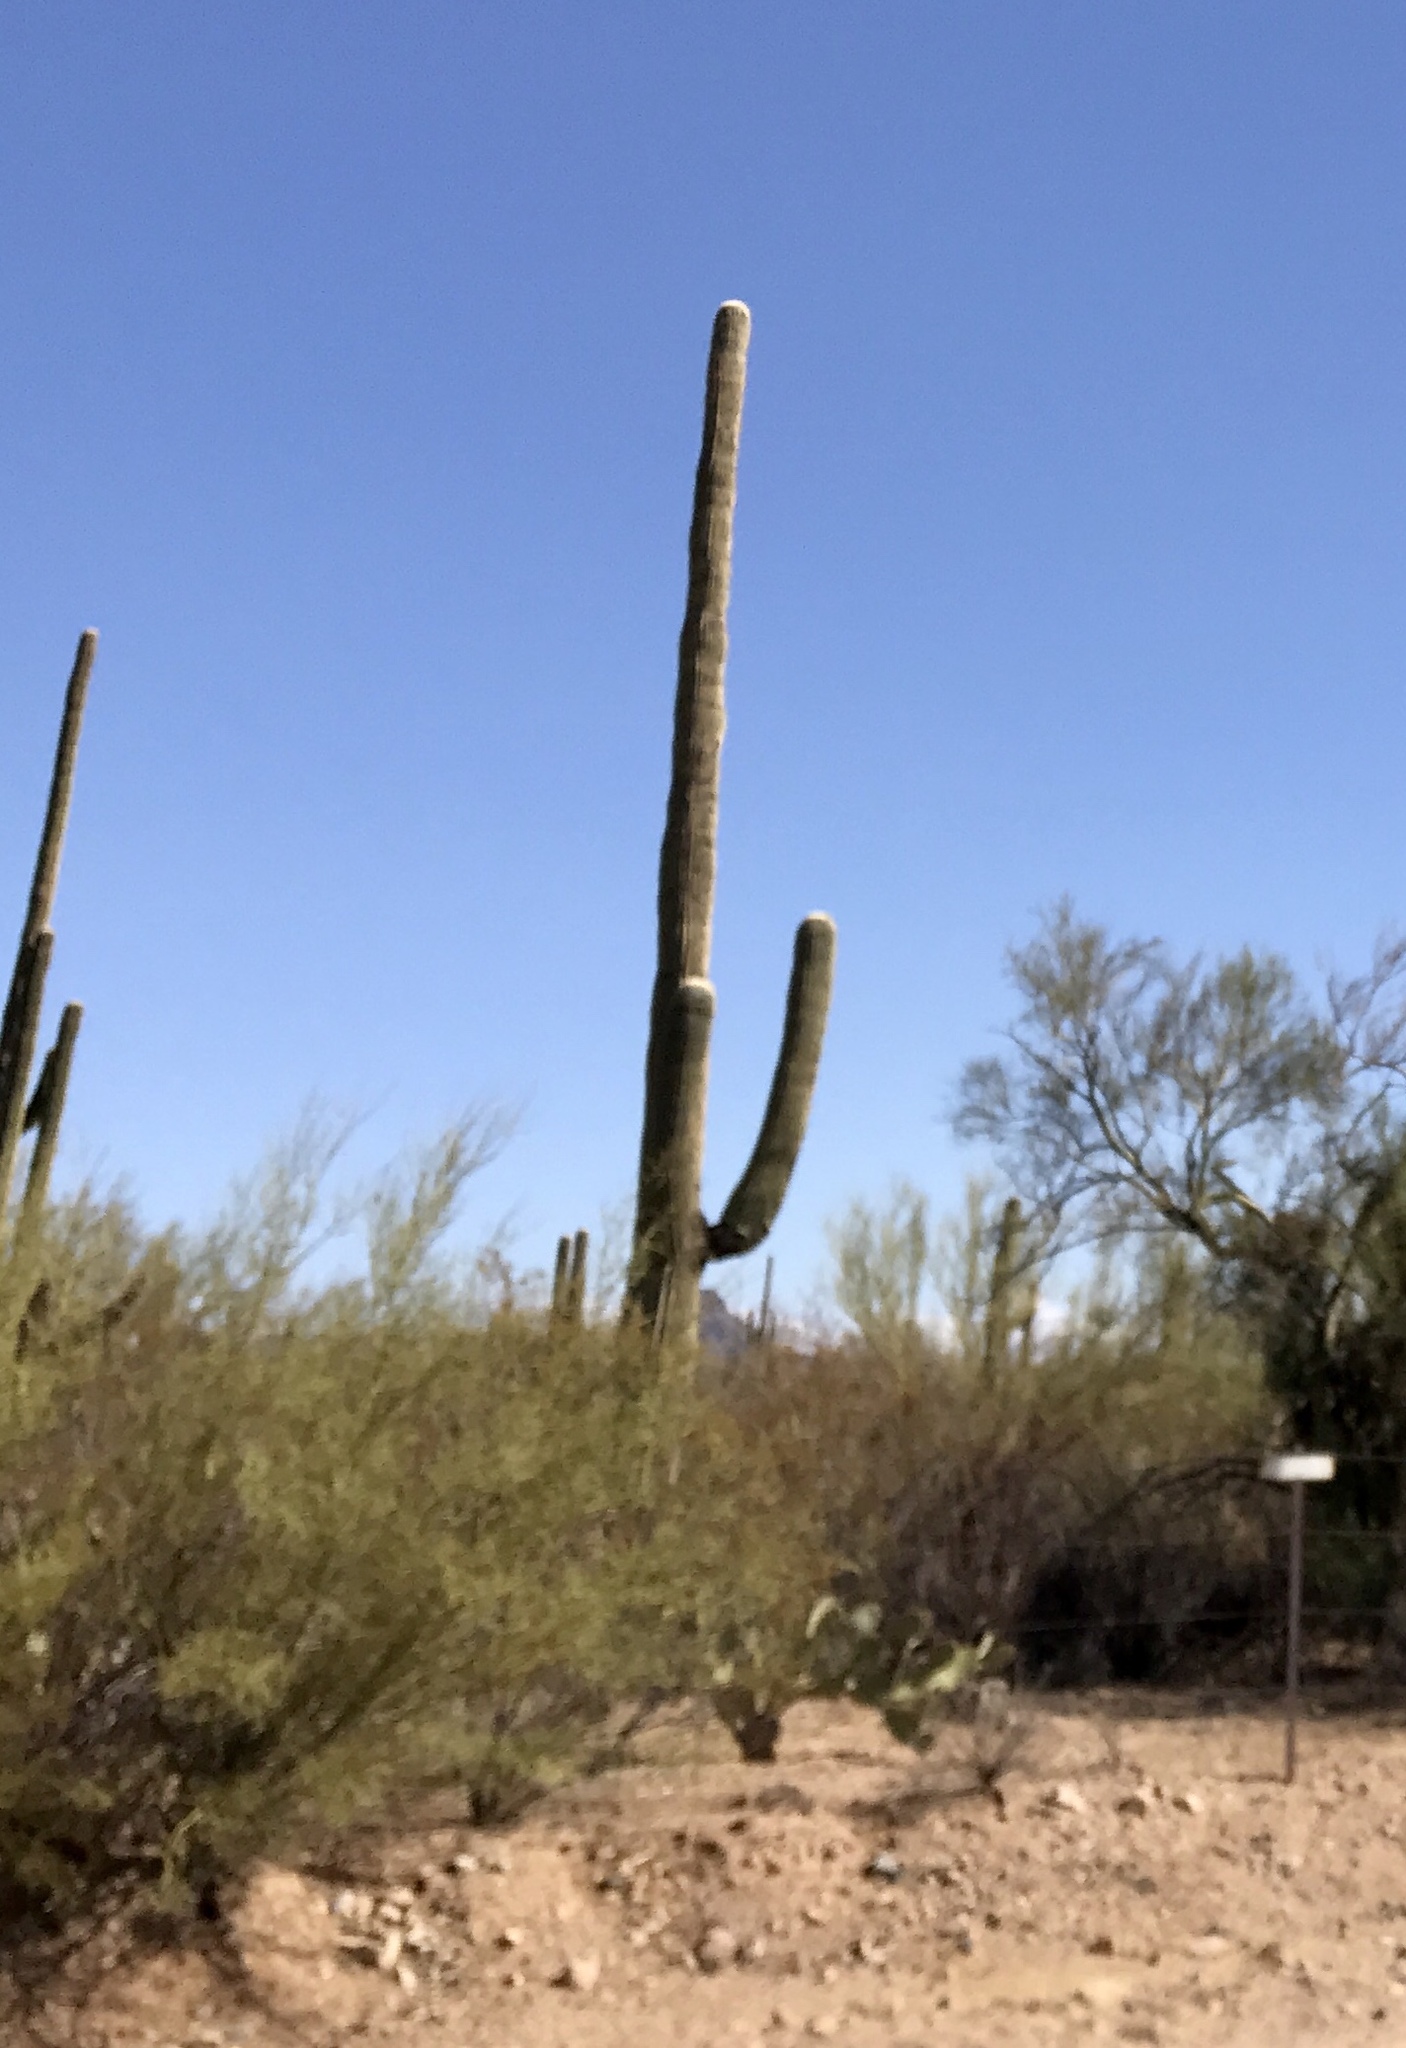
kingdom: Plantae
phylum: Tracheophyta
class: Magnoliopsida
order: Caryophyllales
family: Cactaceae
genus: Carnegiea
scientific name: Carnegiea gigantea
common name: Saguaro
